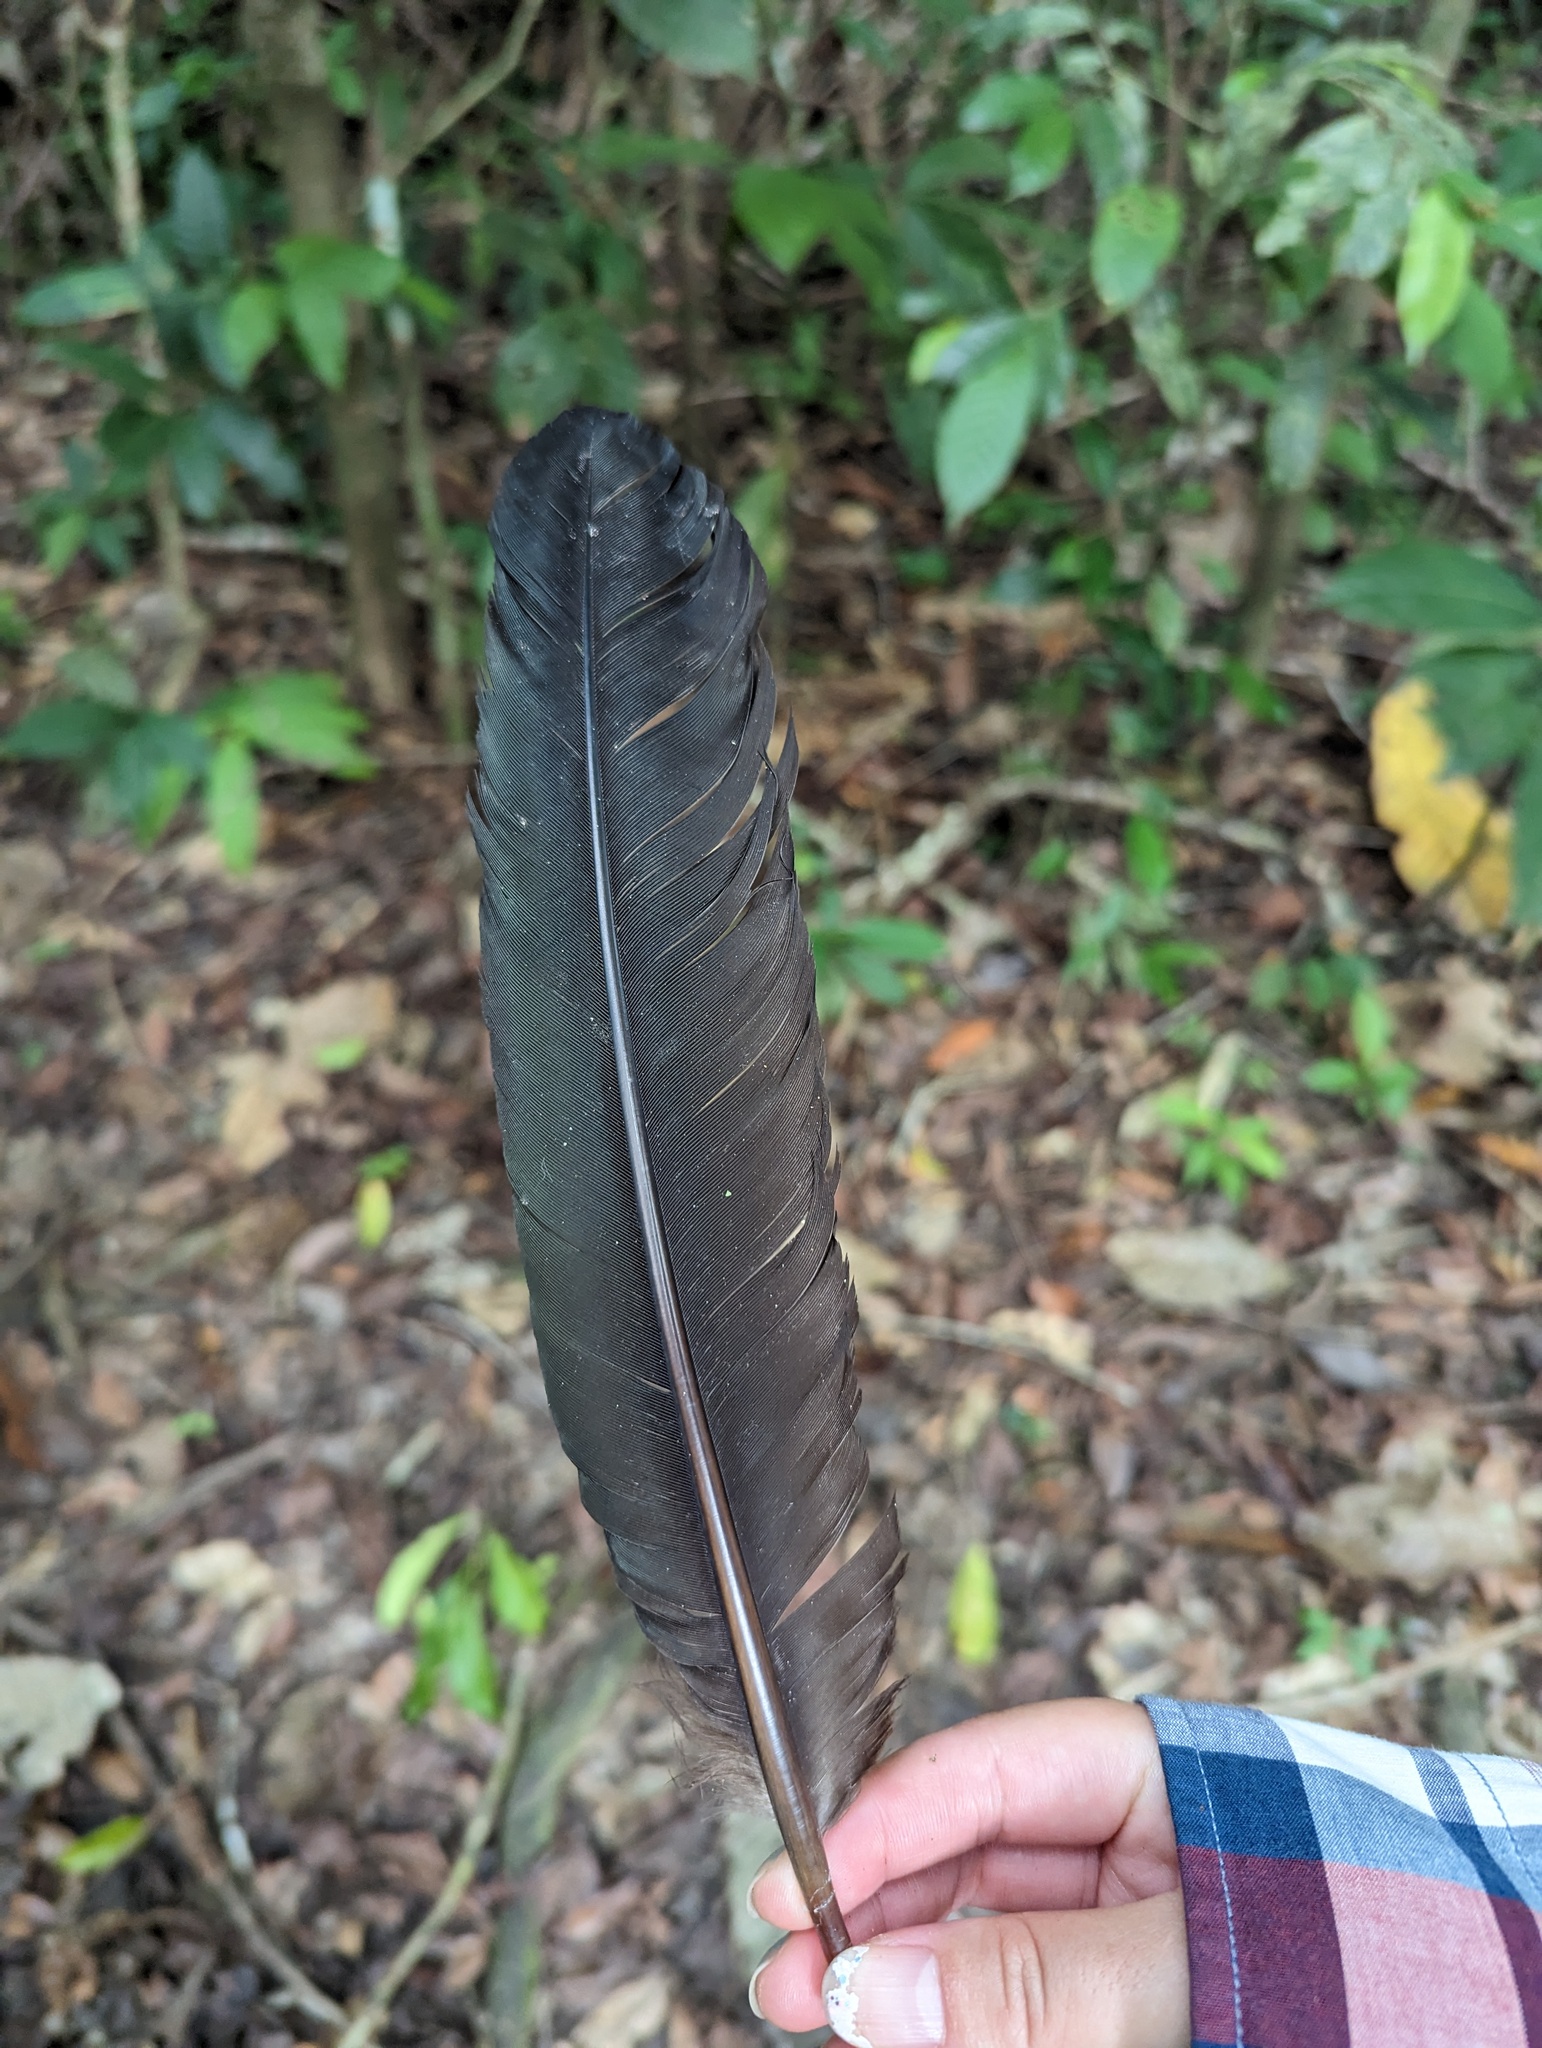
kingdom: Animalia
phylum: Chordata
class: Aves
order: Accipitriformes
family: Cathartidae
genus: Coragyps
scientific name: Coragyps atratus
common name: Black vulture
